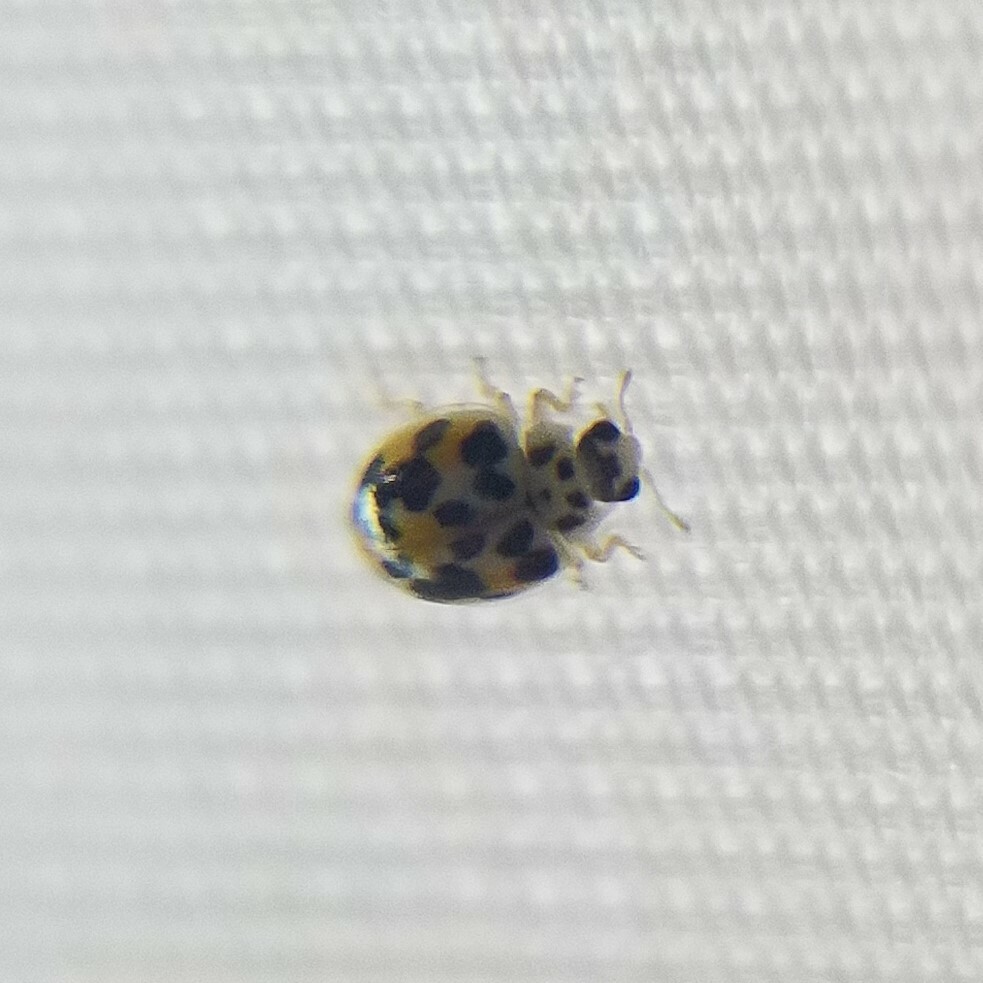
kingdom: Animalia
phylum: Arthropoda
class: Insecta
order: Coleoptera
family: Coccinellidae
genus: Psyllobora
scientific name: Psyllobora vigintimaculata
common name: Ladybird beetle
